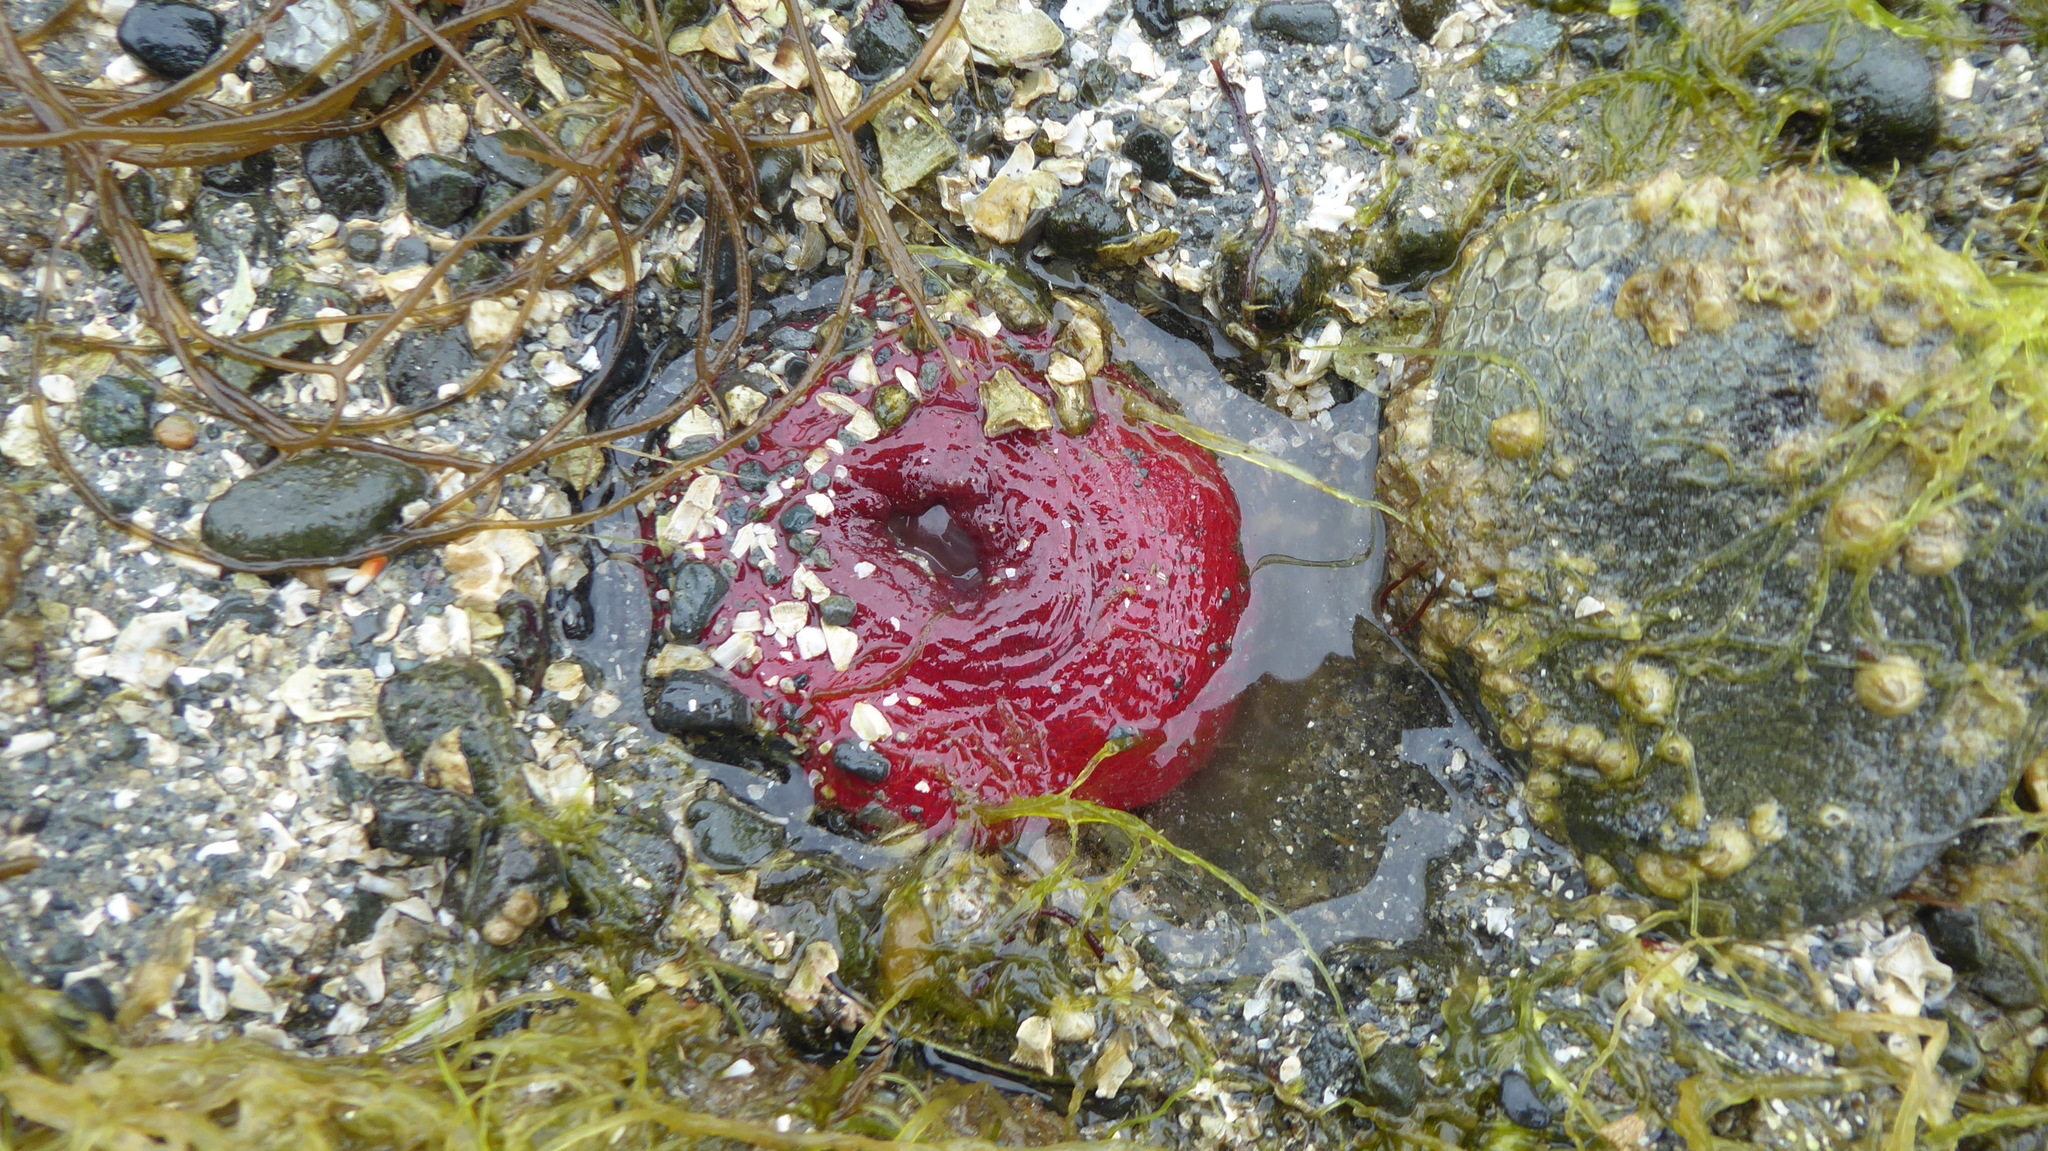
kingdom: Animalia
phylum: Cnidaria
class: Anthozoa
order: Actiniaria
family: Actiniidae
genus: Urticina
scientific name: Urticina clandestina
